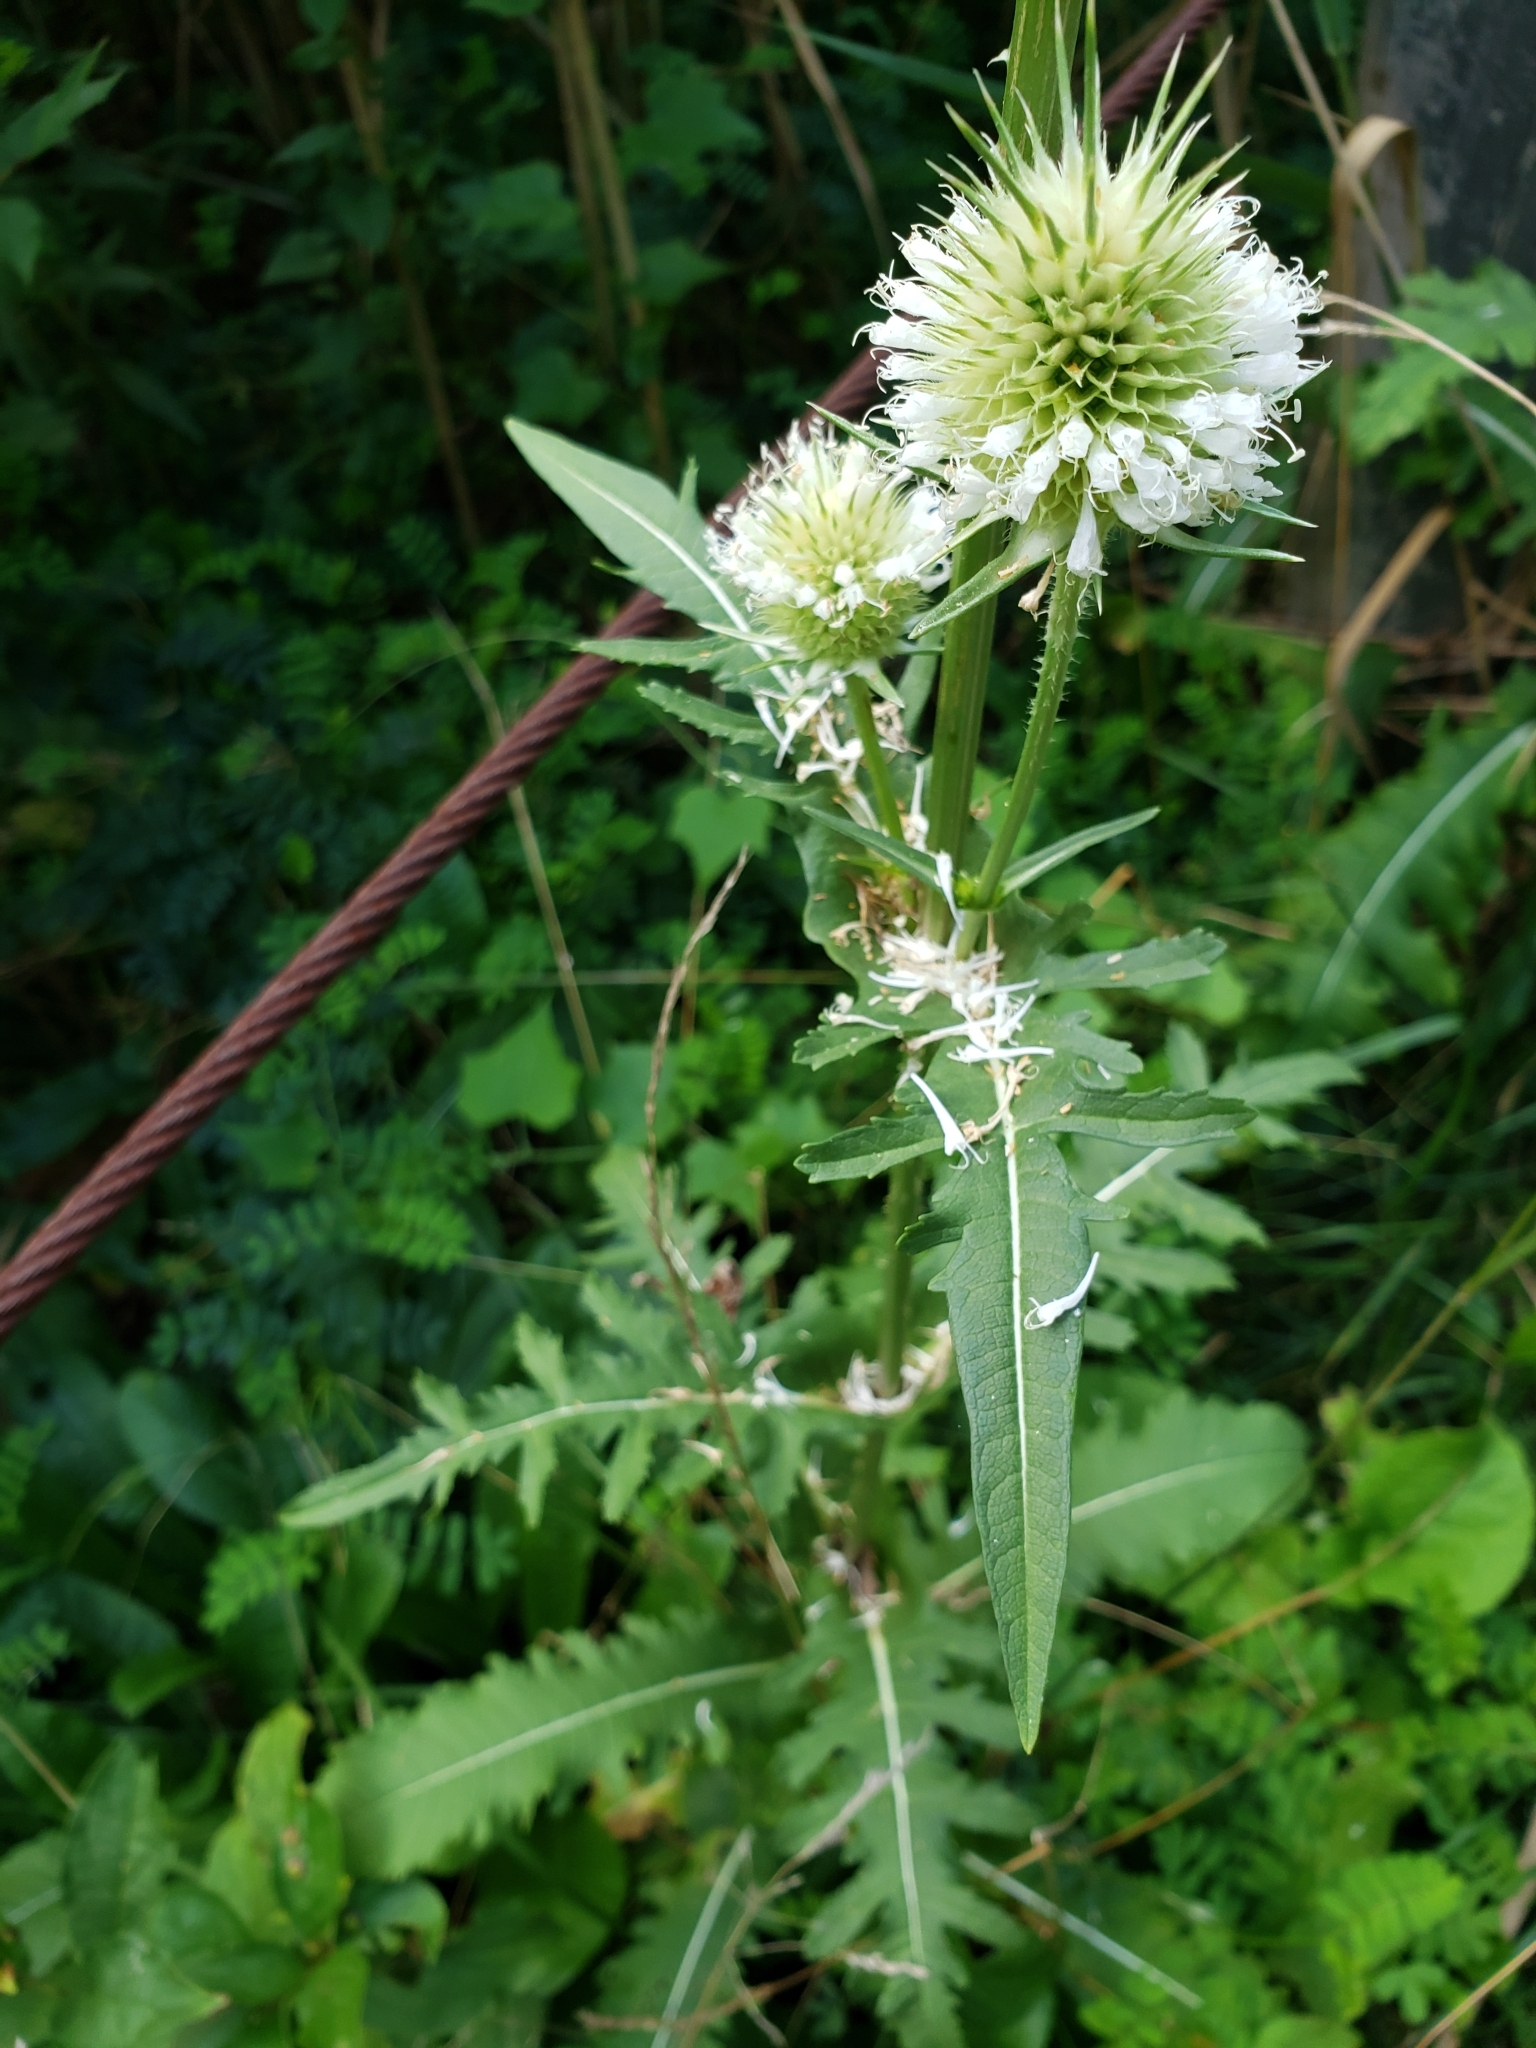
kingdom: Plantae
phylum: Tracheophyta
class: Magnoliopsida
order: Dipsacales
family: Caprifoliaceae
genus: Dipsacus
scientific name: Dipsacus laciniatus
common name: Cut-leaved teasel
